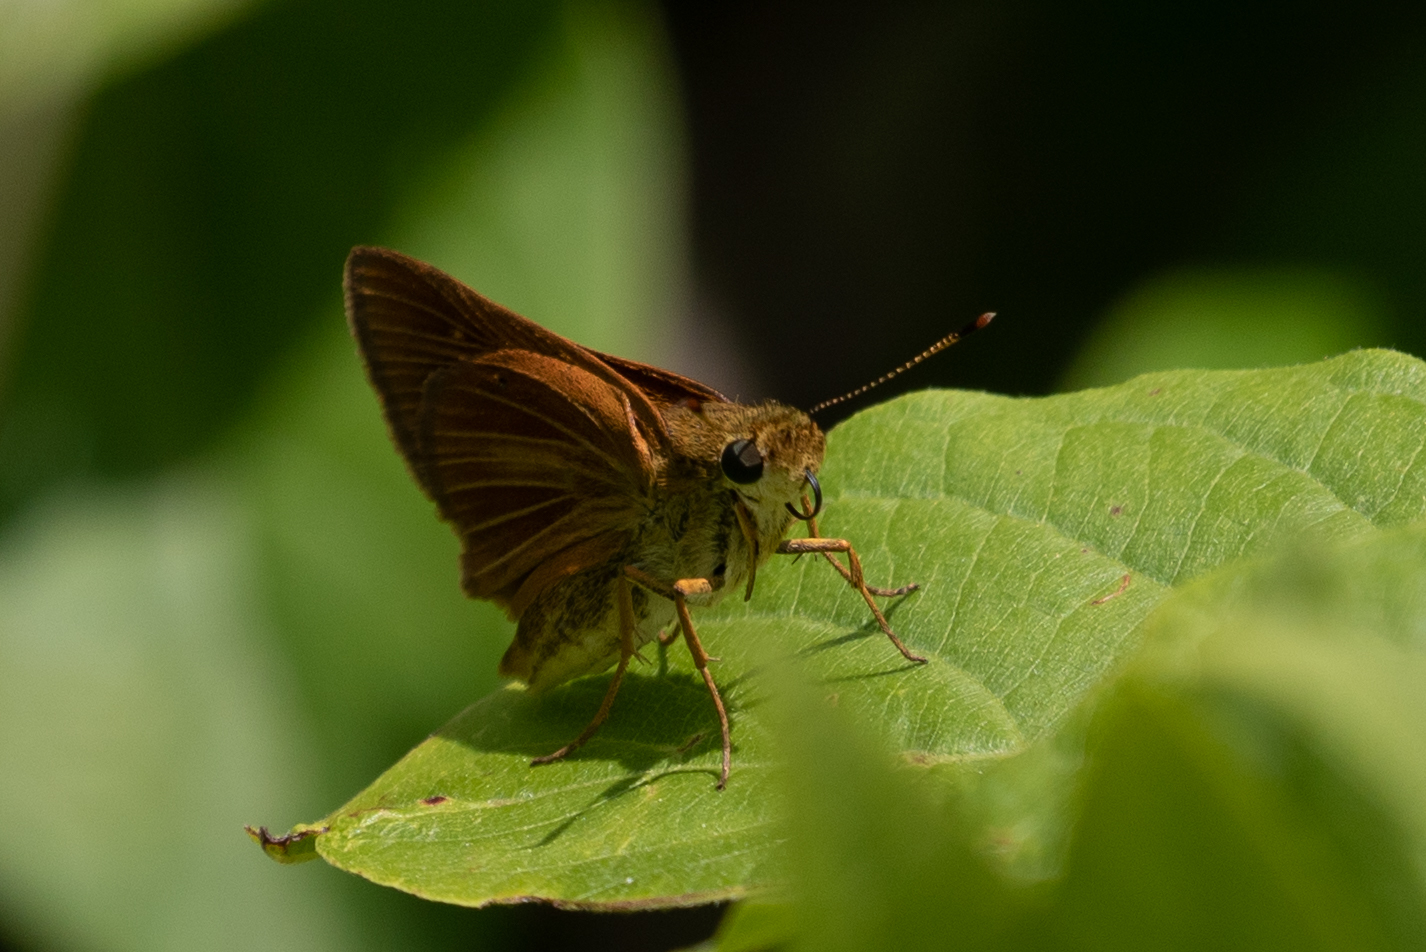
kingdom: Animalia
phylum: Arthropoda
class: Insecta
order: Lepidoptera
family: Hesperiidae
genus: Euphyes
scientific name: Euphyes dion
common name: Dion skipper
